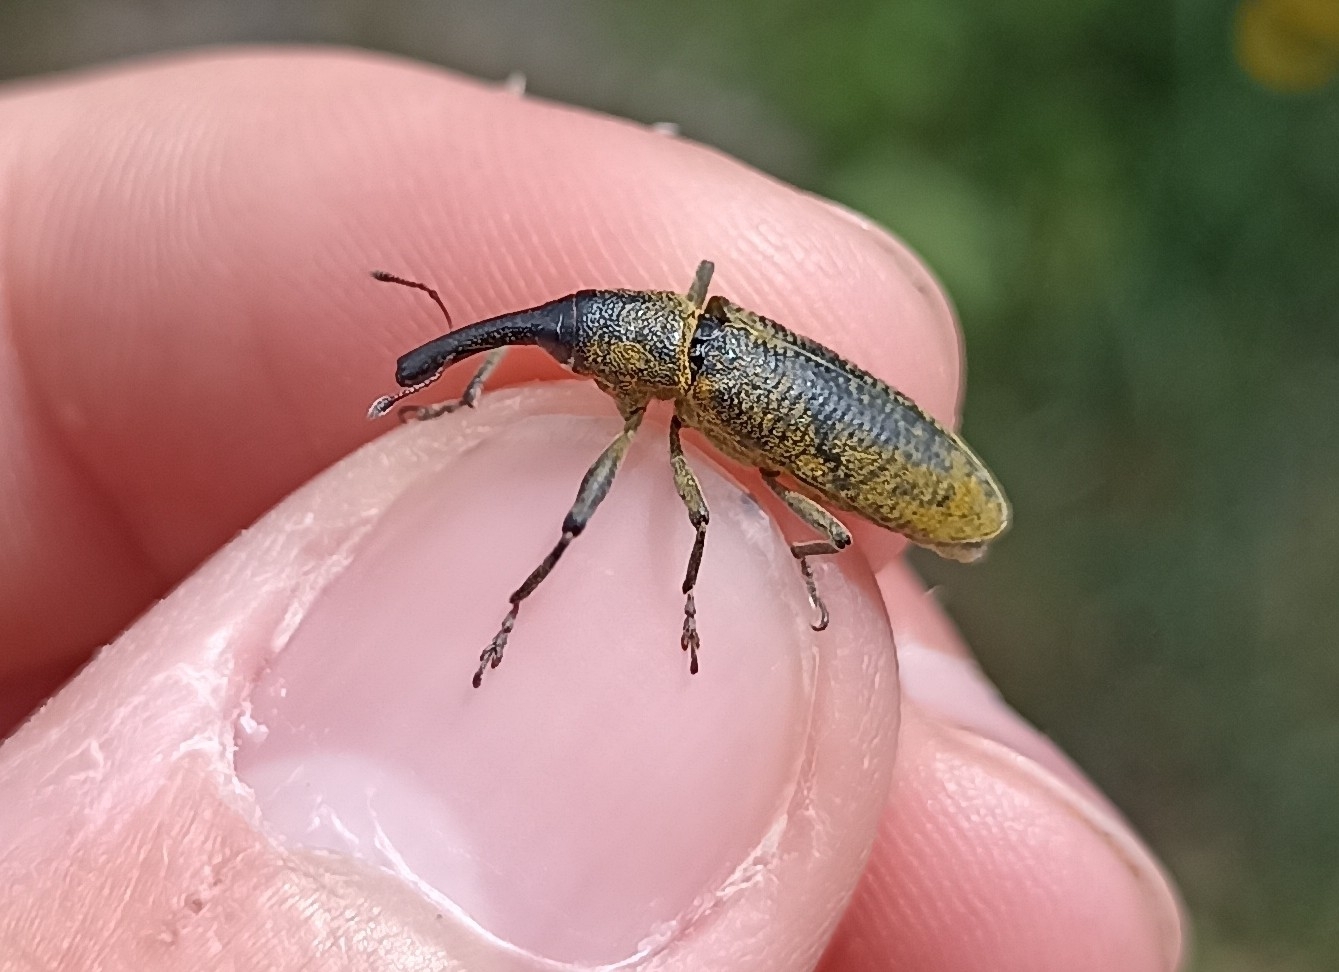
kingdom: Animalia
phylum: Arthropoda
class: Insecta
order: Coleoptera
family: Curculionidae
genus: Lixus
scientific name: Lixus pulverulentus
